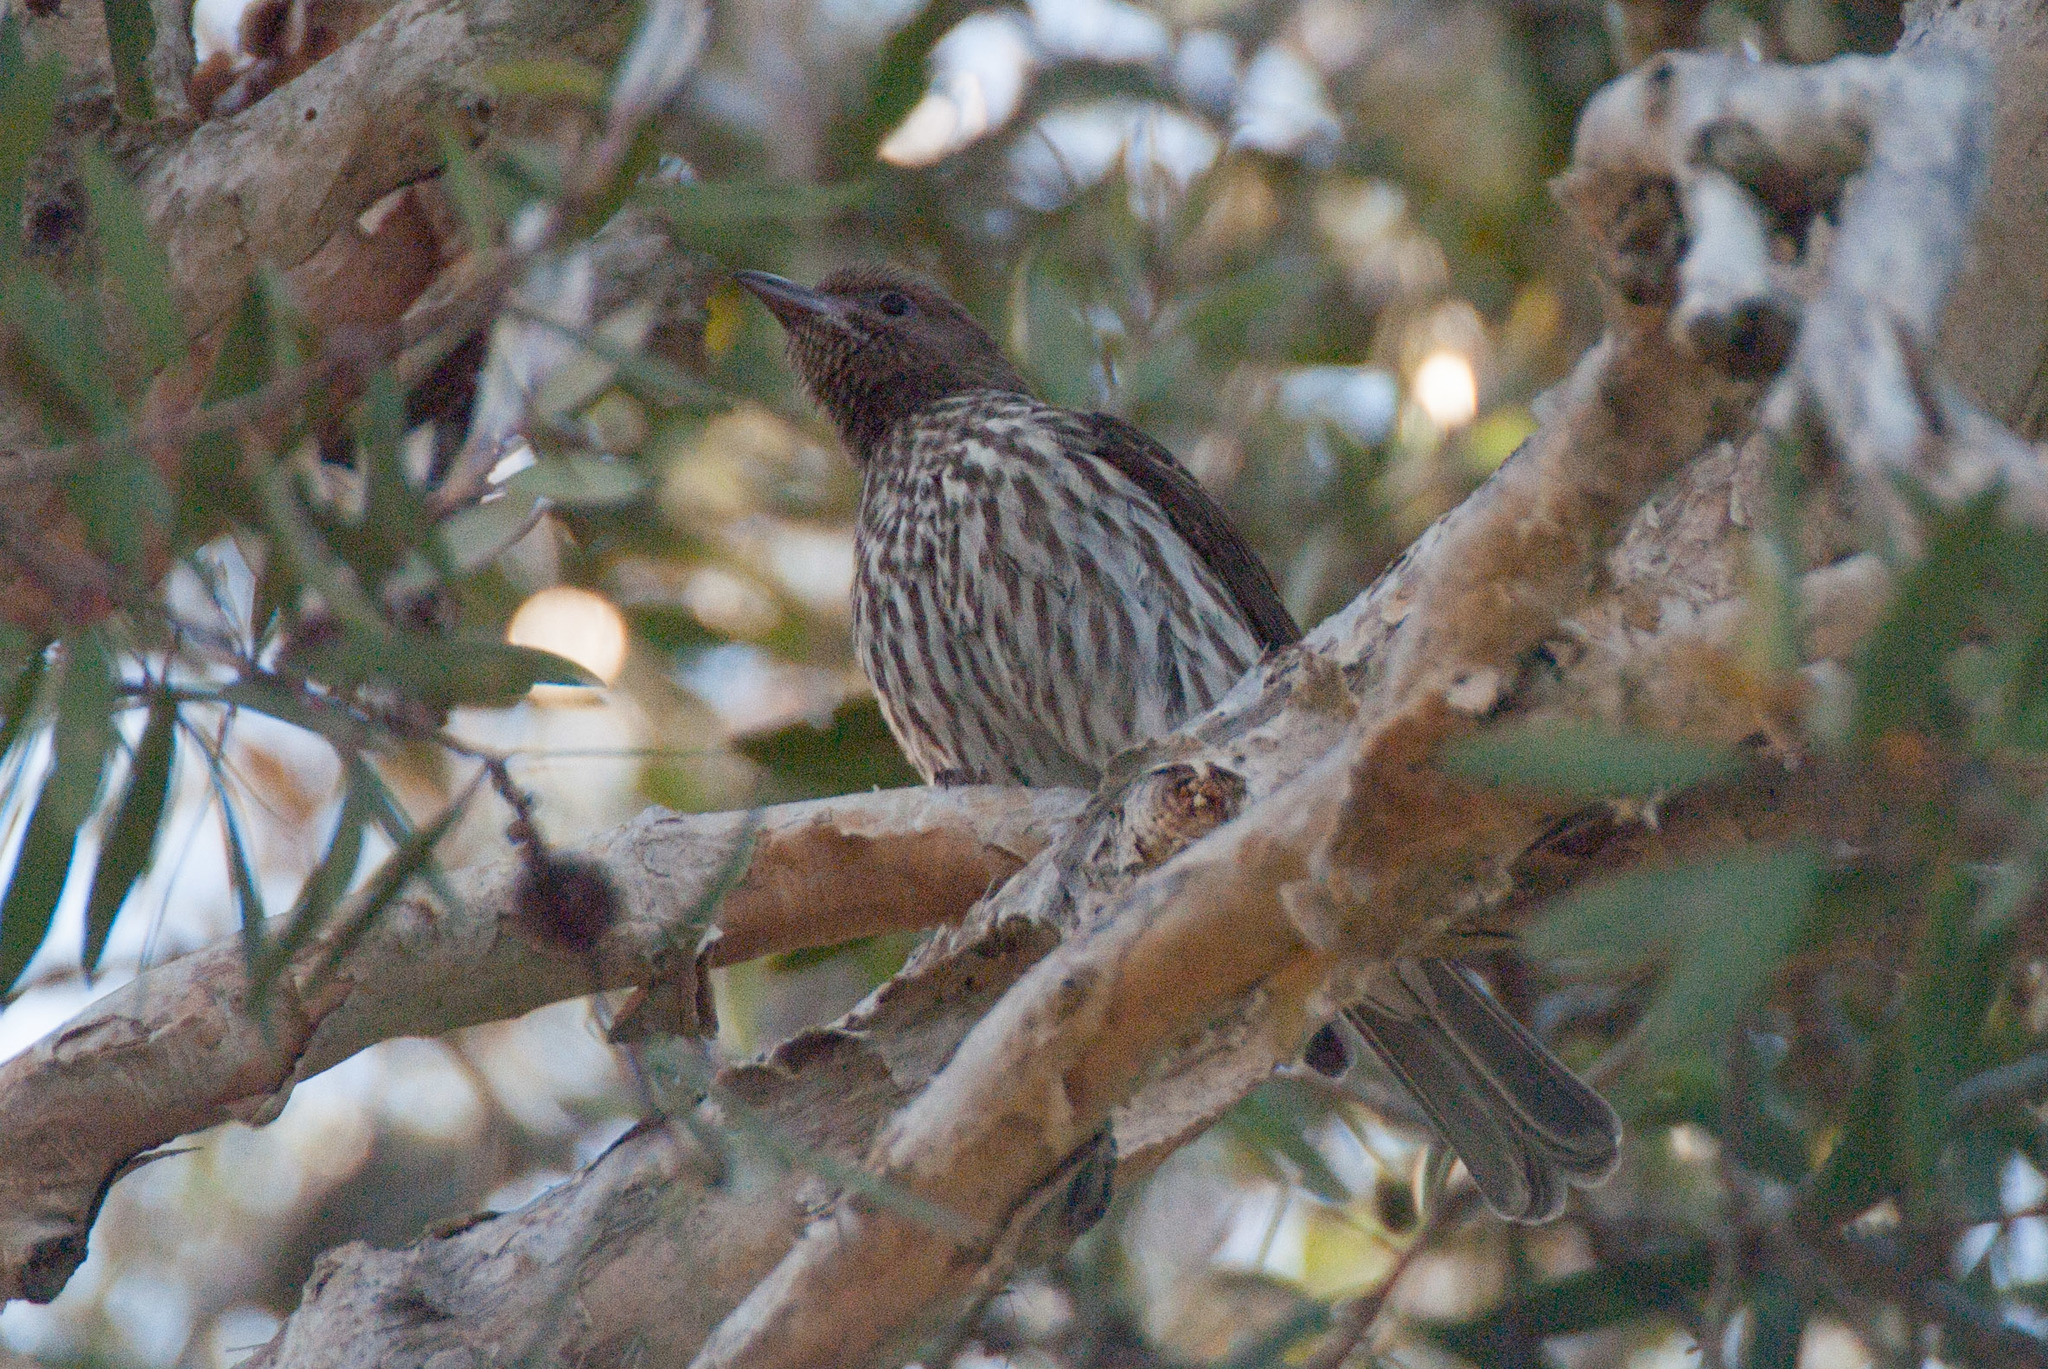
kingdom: Animalia
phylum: Chordata
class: Aves
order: Passeriformes
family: Oriolidae
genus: Sphecotheres
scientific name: Sphecotheres vieilloti
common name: Australasian figbird
